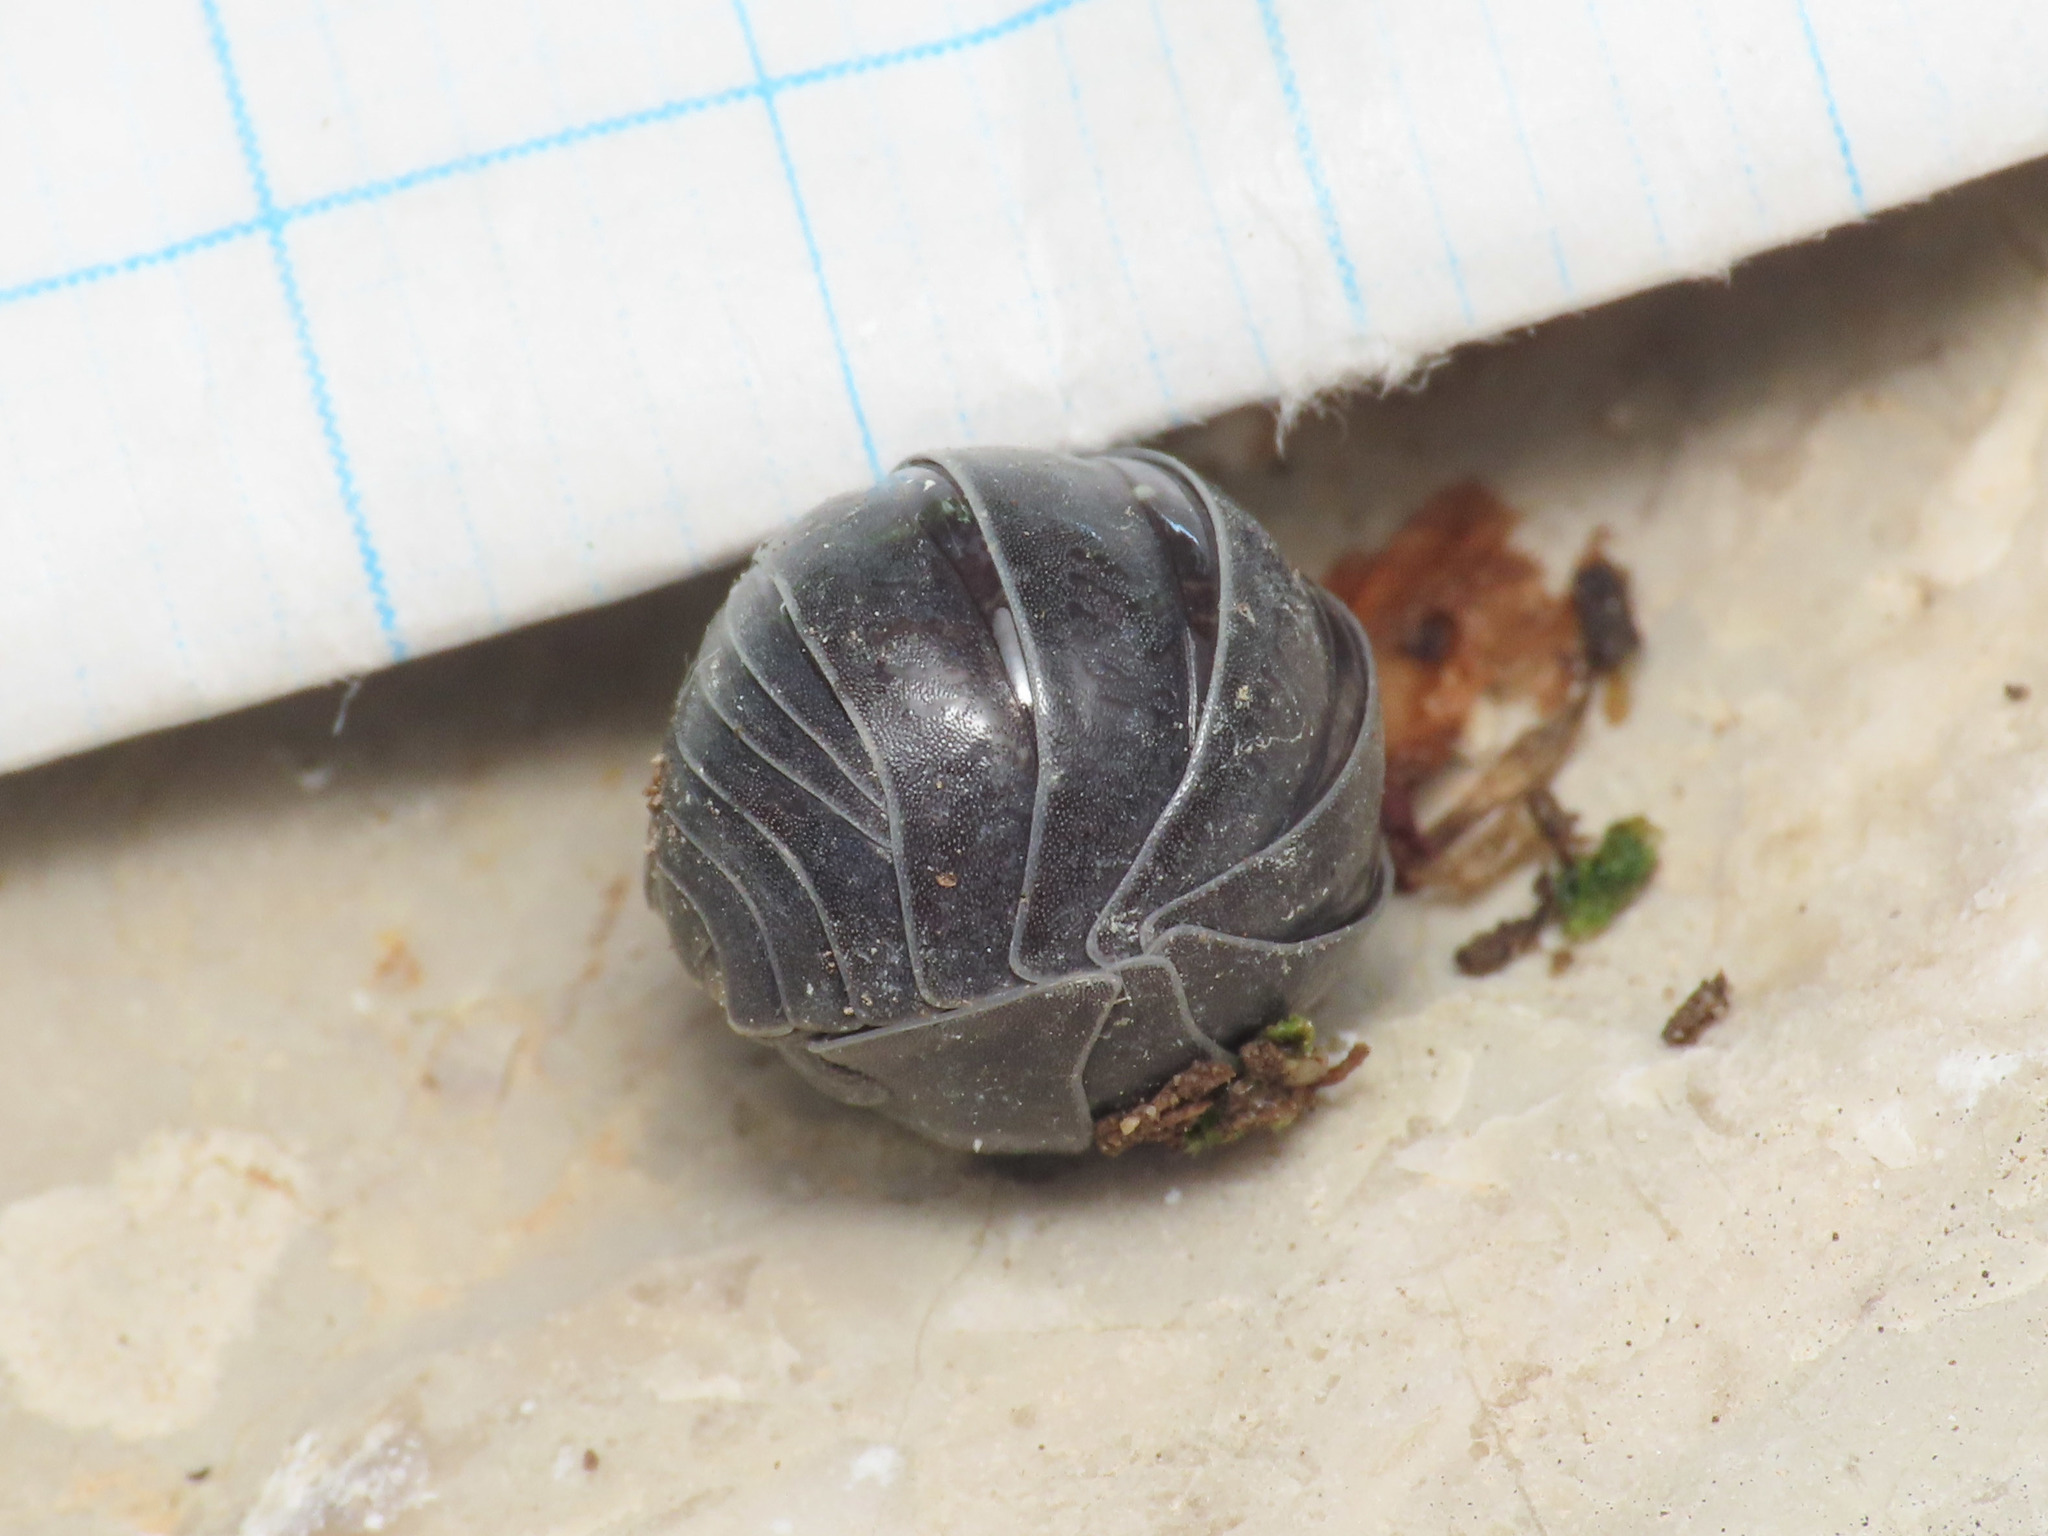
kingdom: Animalia
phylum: Arthropoda
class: Malacostraca
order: Isopoda
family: Armadillidiidae
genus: Armadillidium
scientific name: Armadillidium furcatum
